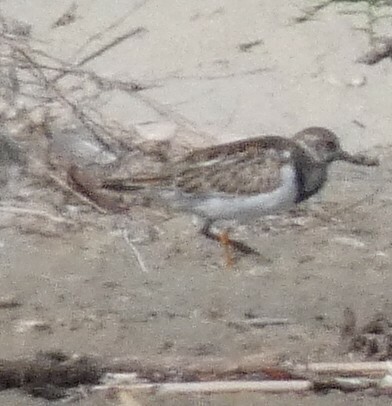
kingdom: Animalia
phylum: Chordata
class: Aves
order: Charadriiformes
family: Scolopacidae
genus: Arenaria
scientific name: Arenaria interpres
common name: Ruddy turnstone
